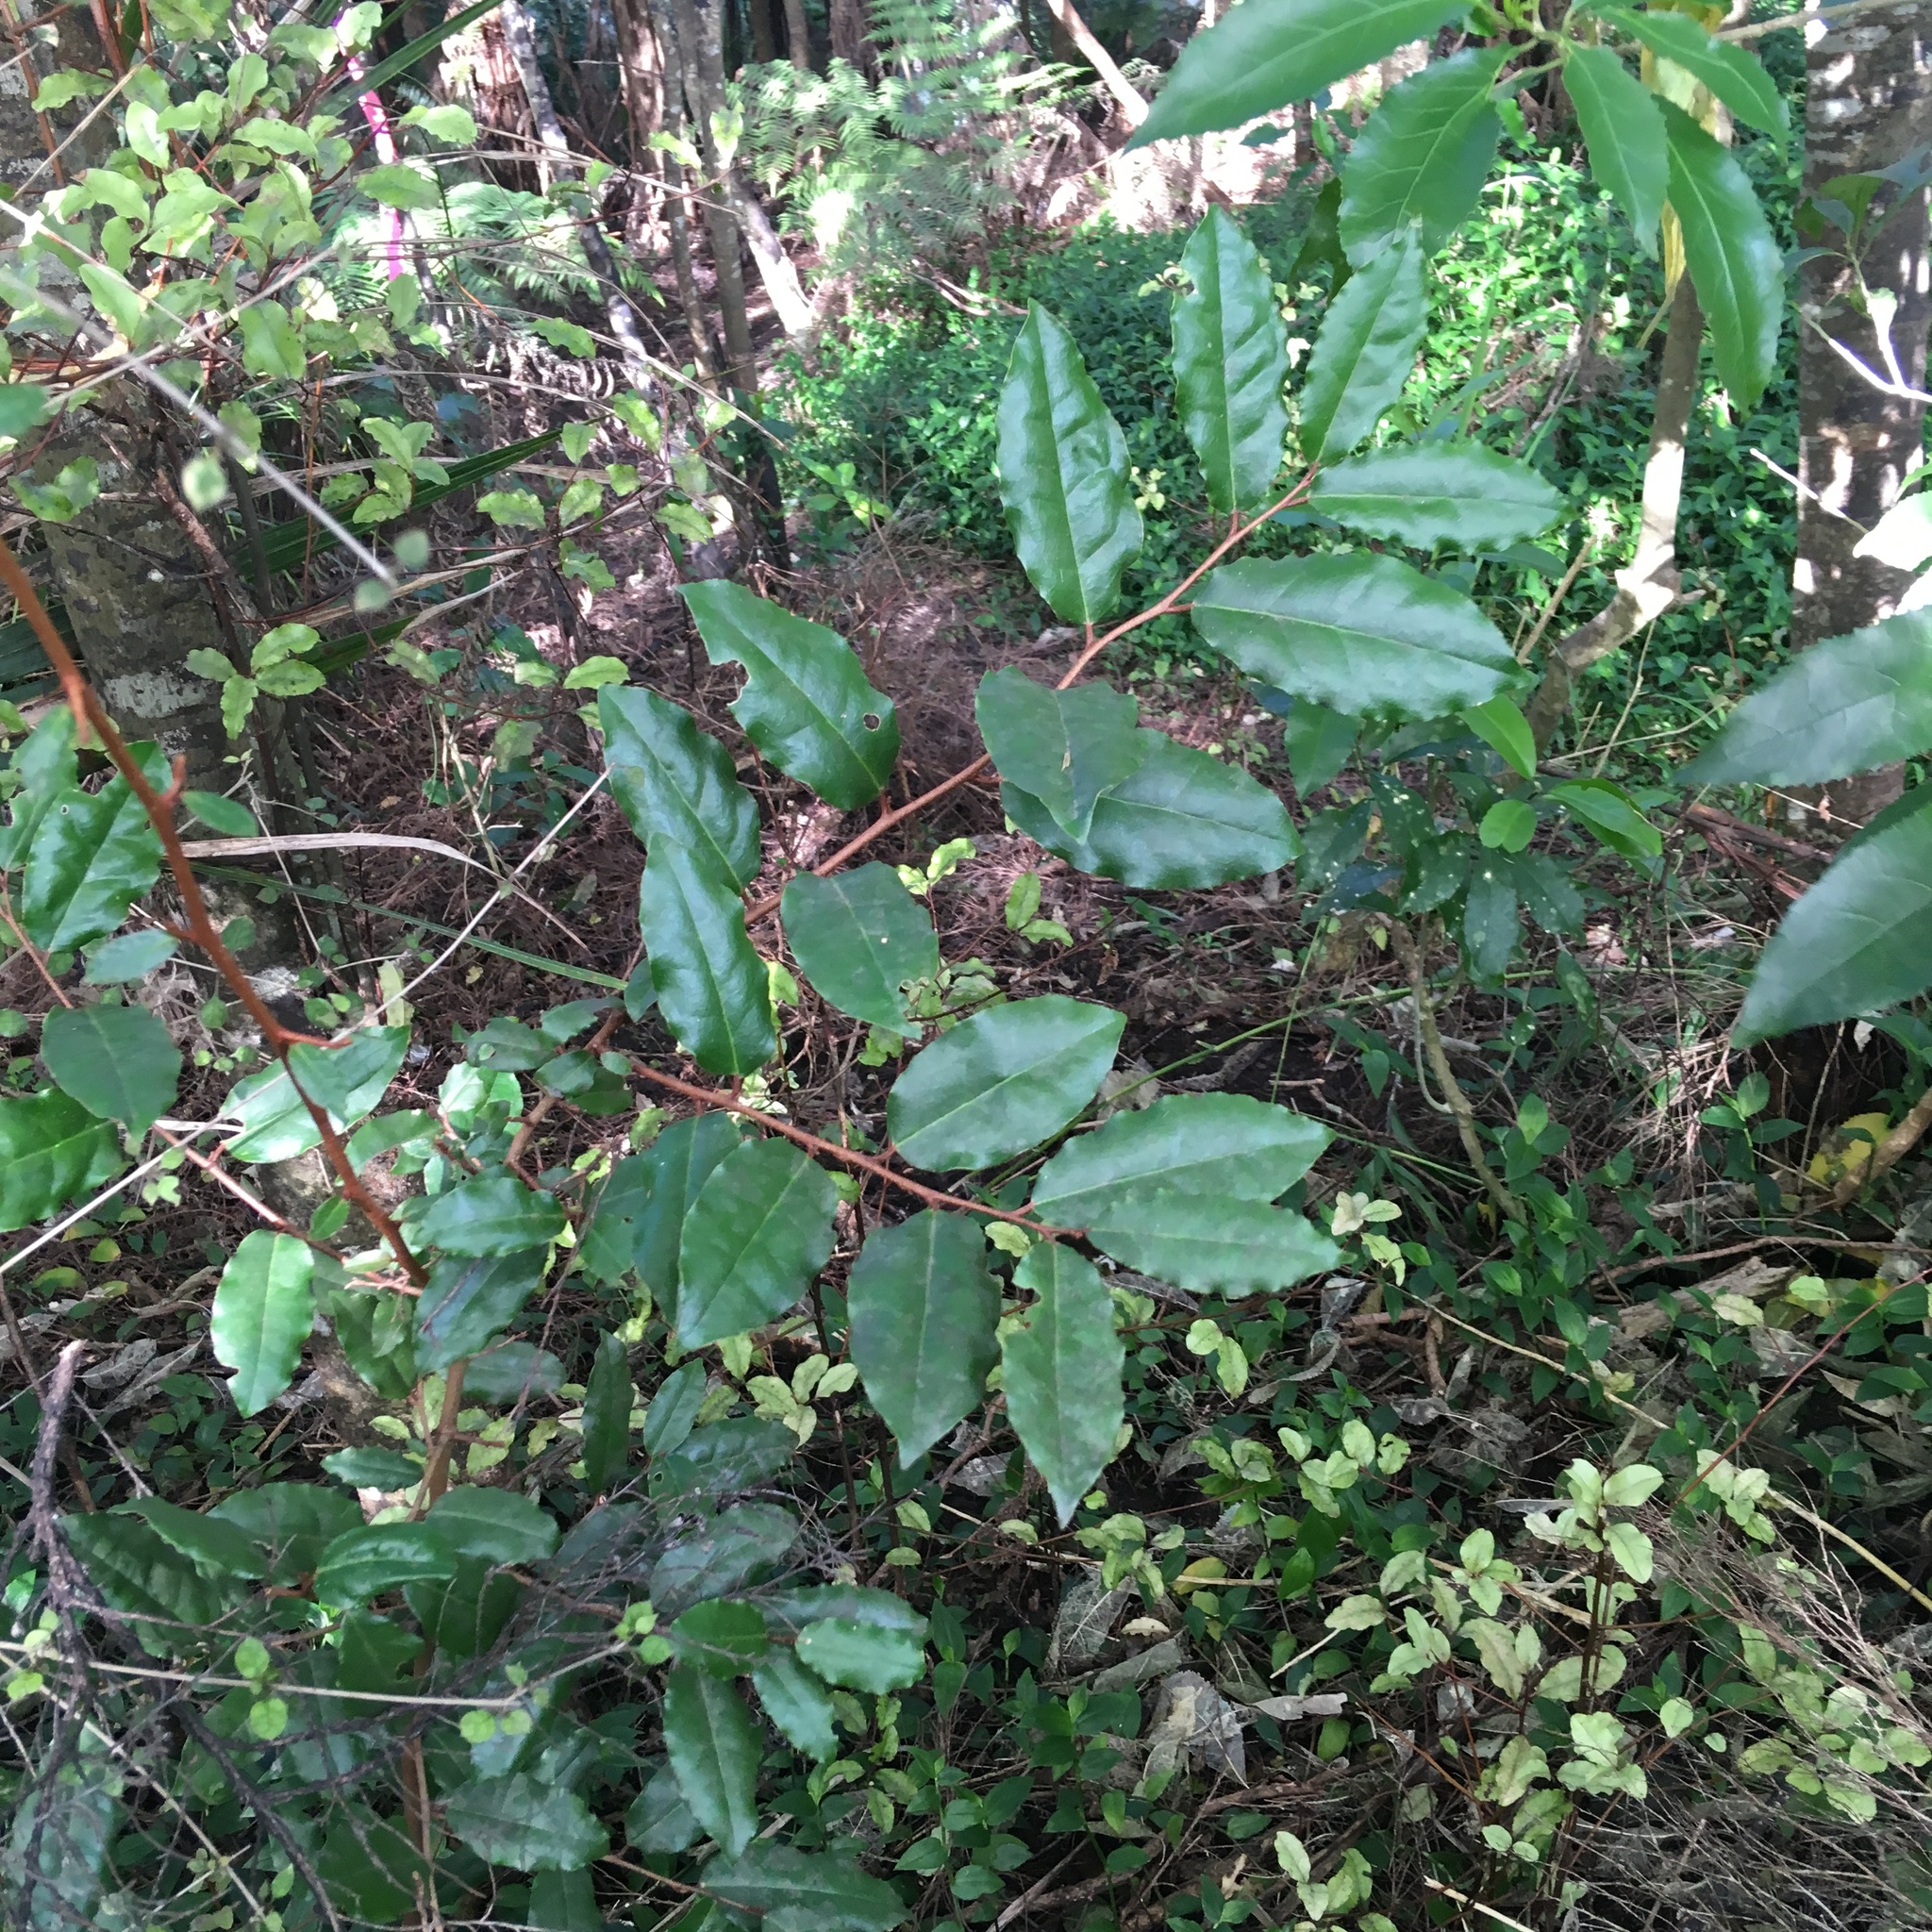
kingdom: Plantae
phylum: Tracheophyta
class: Magnoliopsida
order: Rosales
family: Elaeagnaceae
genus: Elaeagnus
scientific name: Elaeagnus reflexa
